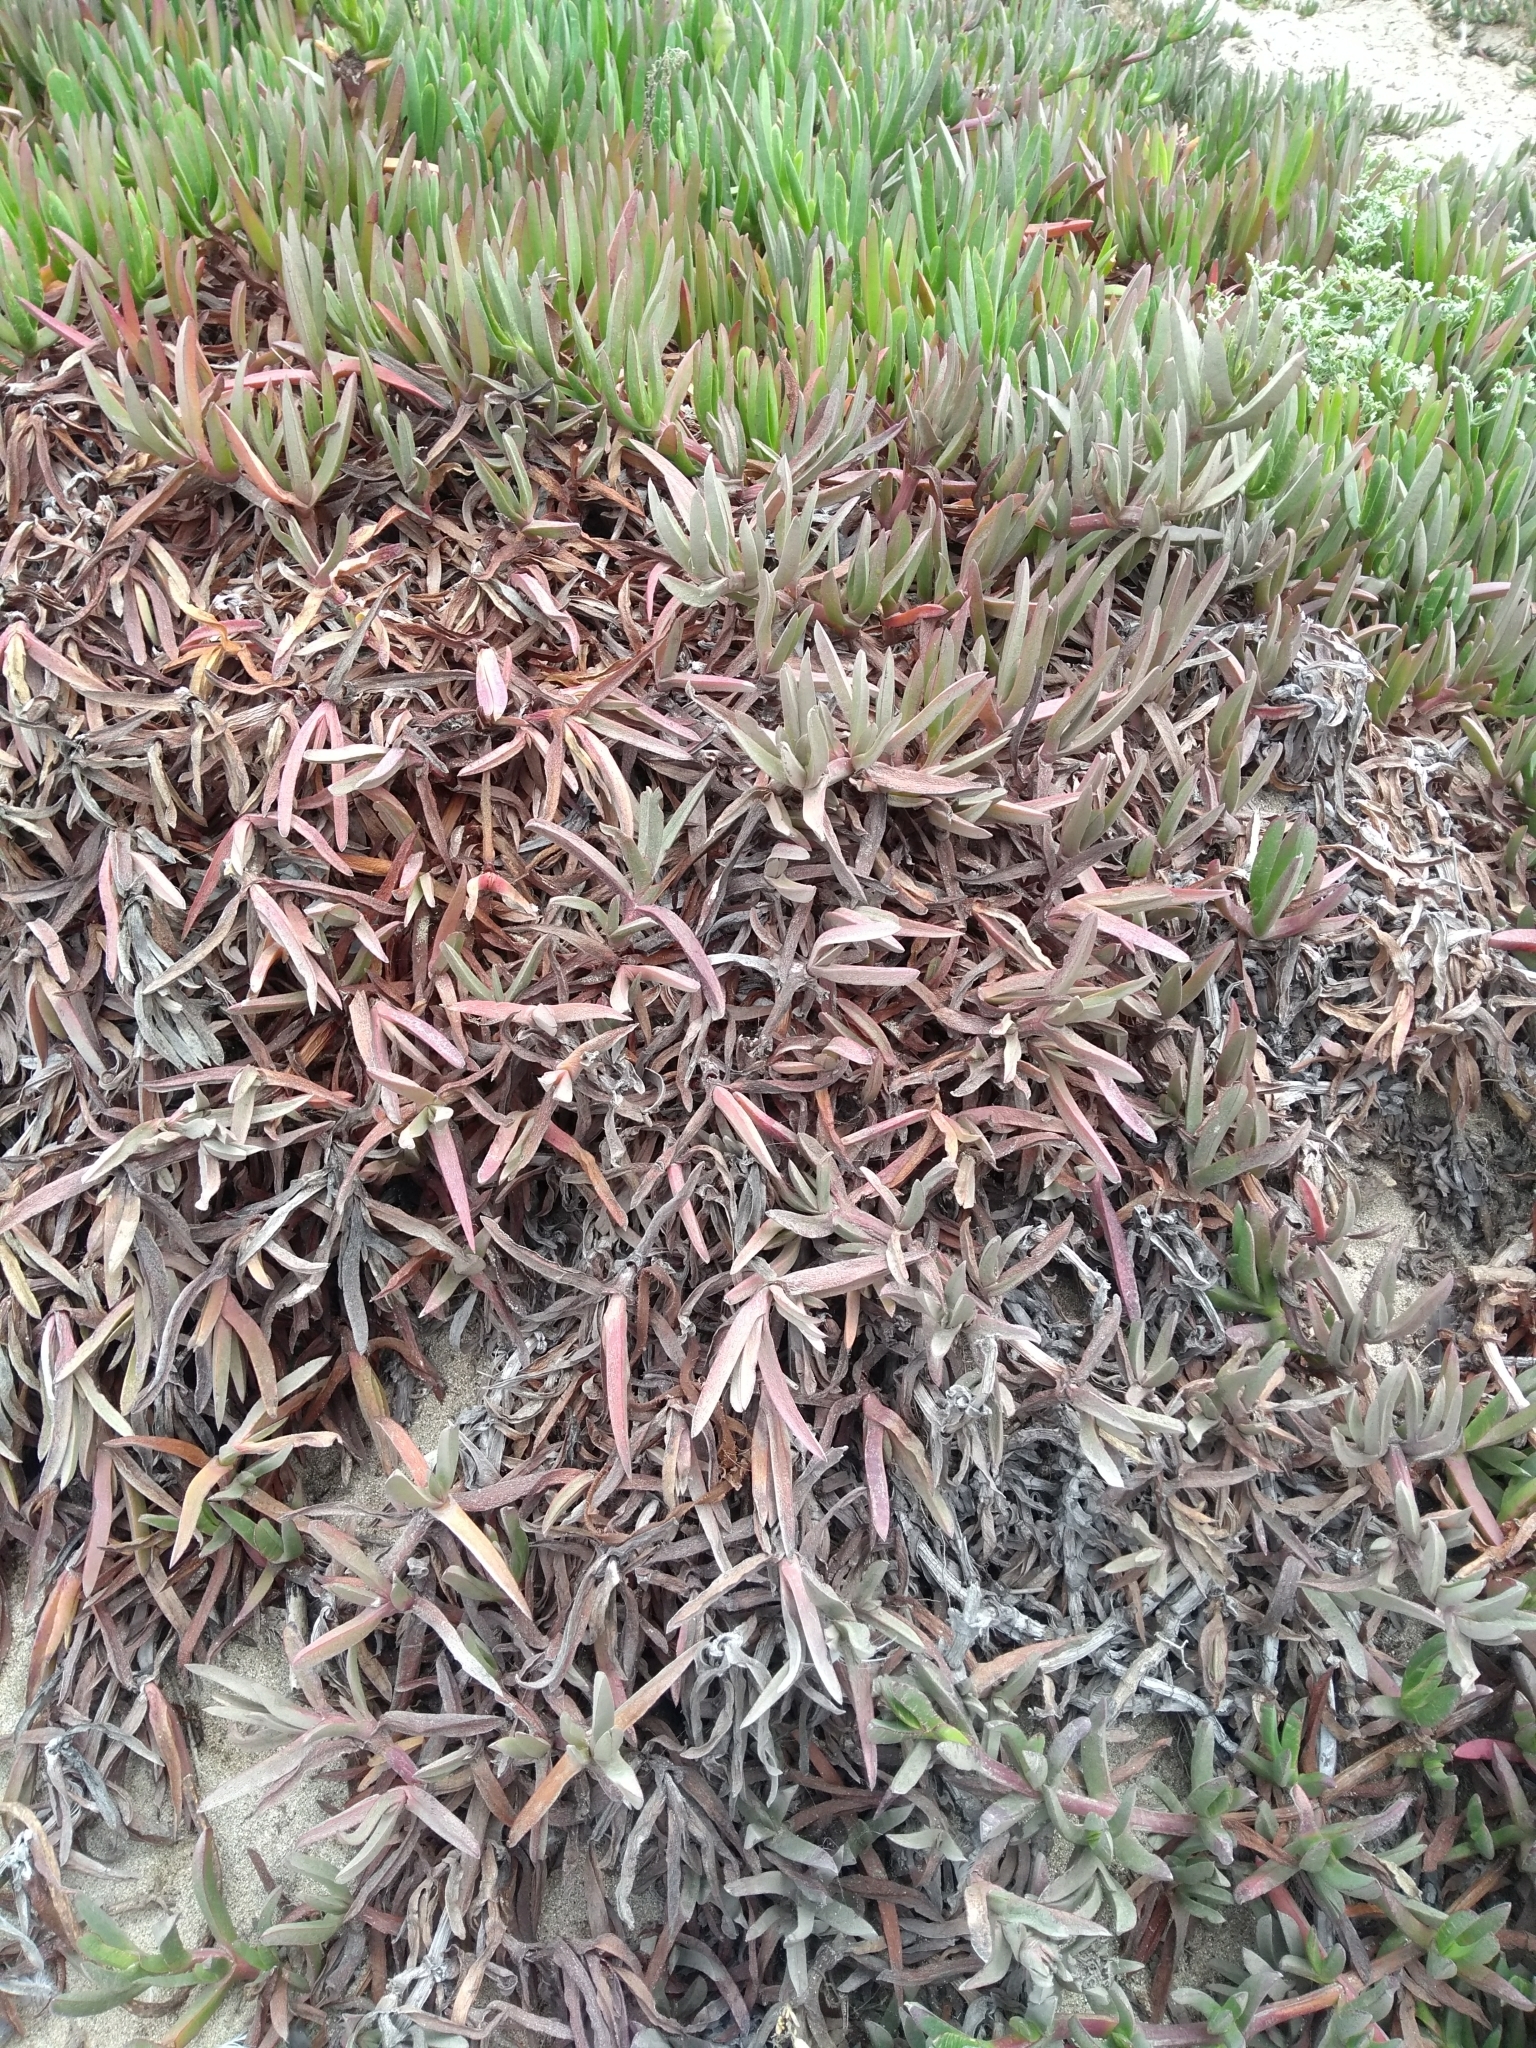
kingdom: Plantae
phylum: Tracheophyta
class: Magnoliopsida
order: Caryophyllales
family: Aizoaceae
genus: Carpobrotus
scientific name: Carpobrotus edulis
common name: Hottentot-fig
